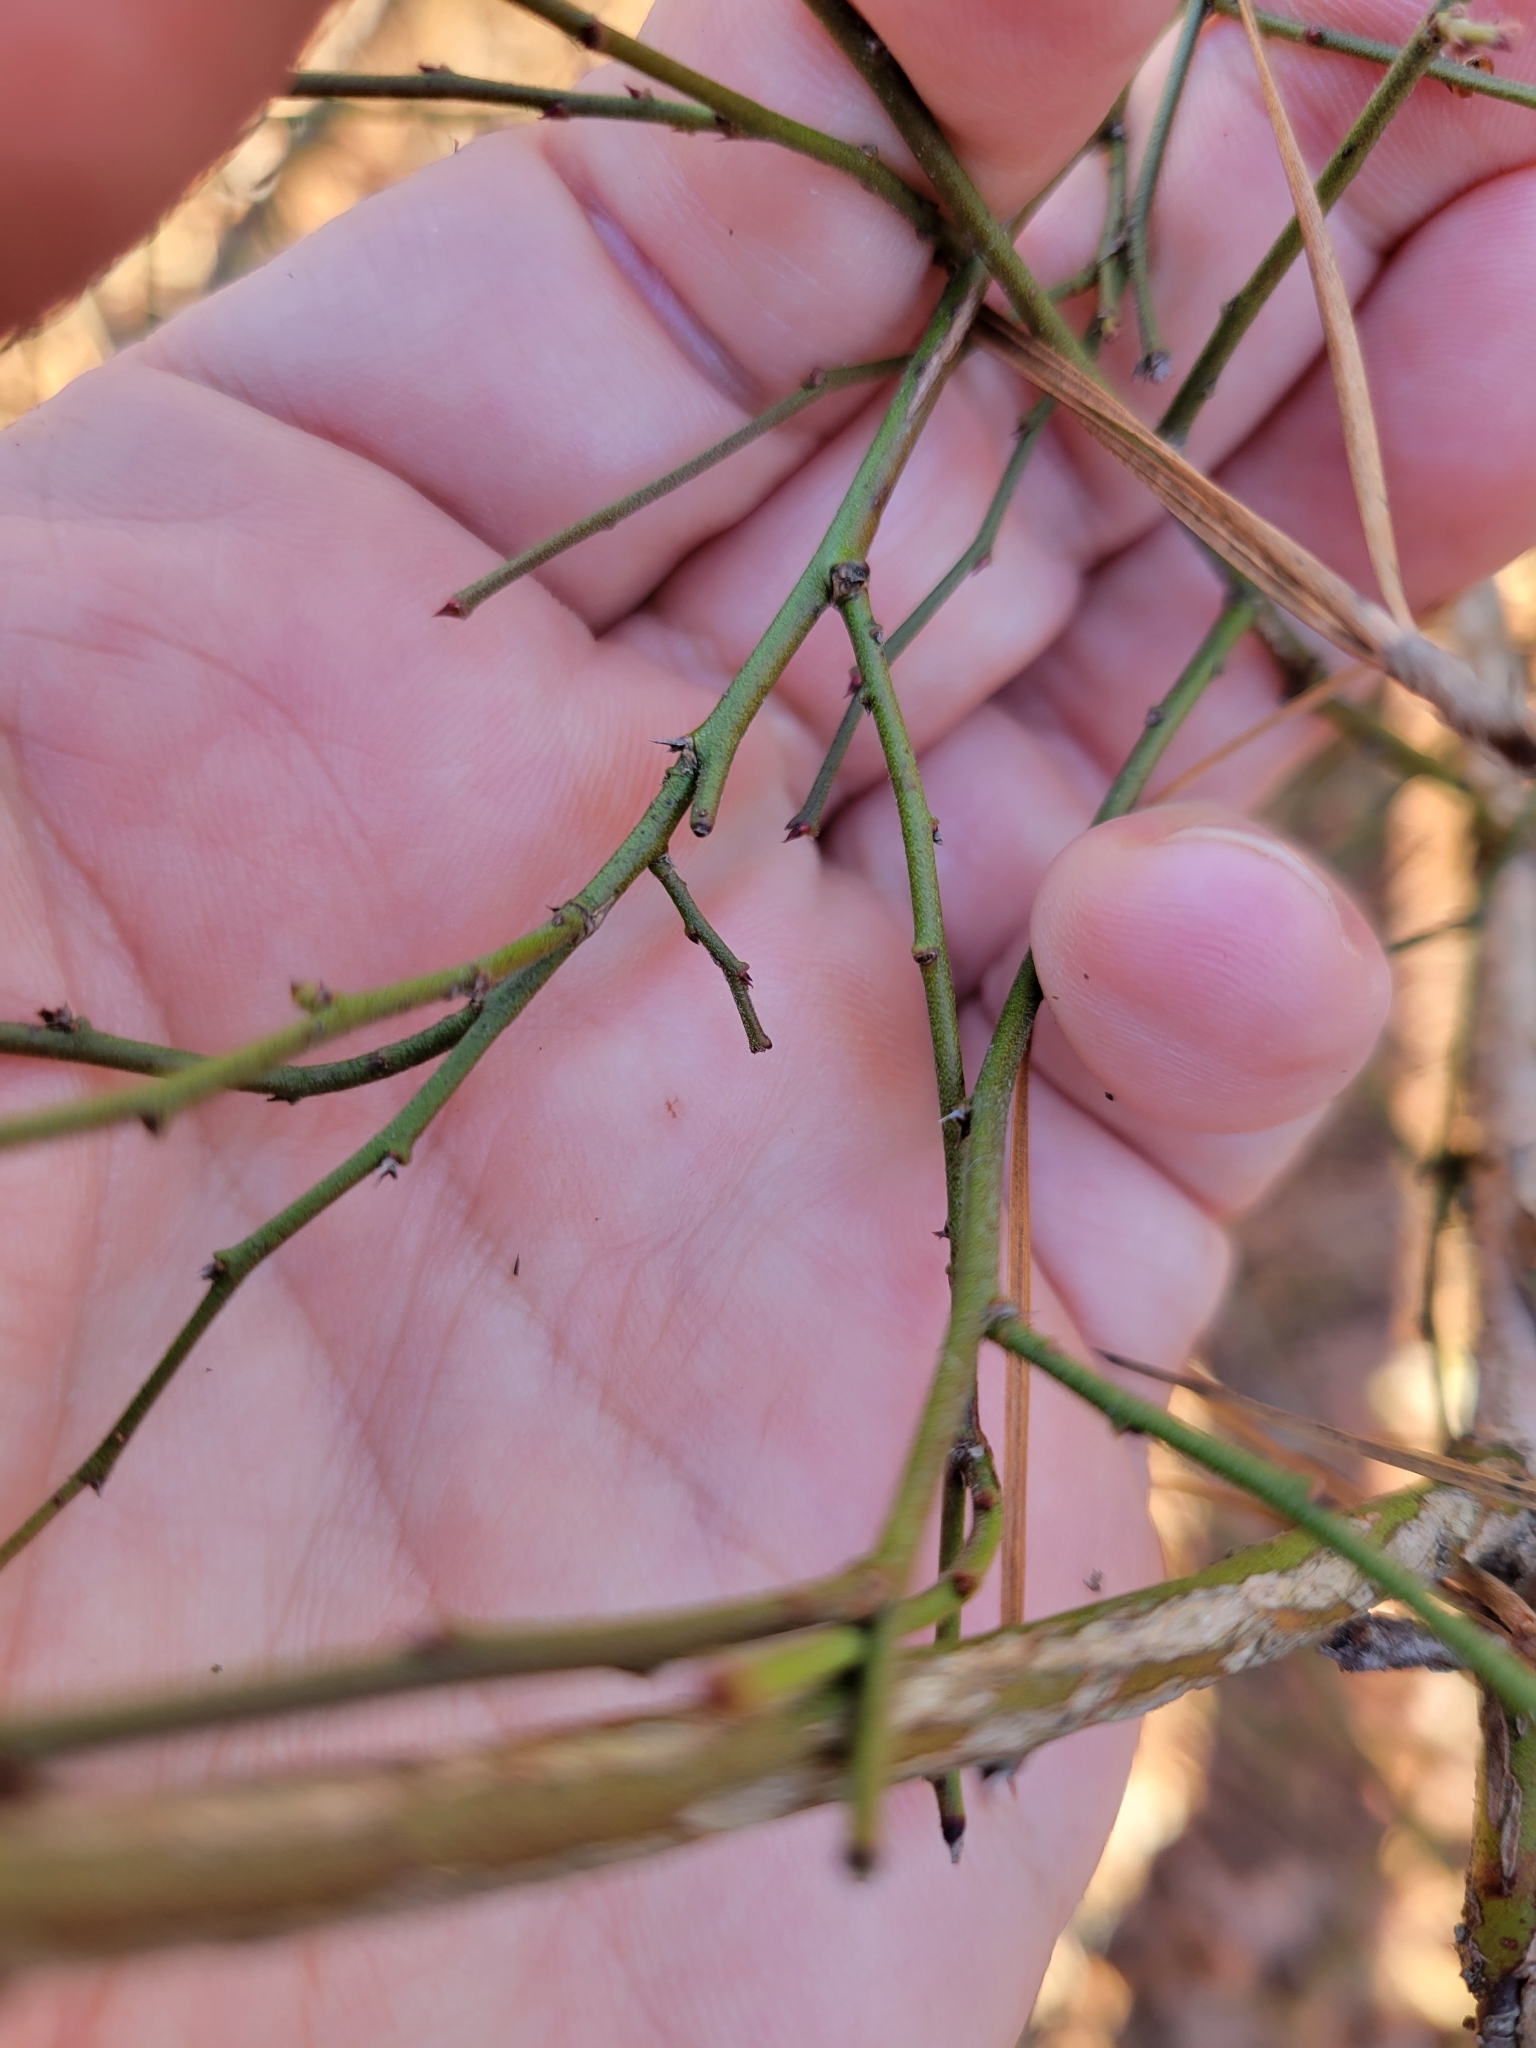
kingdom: Plantae
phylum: Tracheophyta
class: Magnoliopsida
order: Ericales
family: Ericaceae
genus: Vaccinium
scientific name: Vaccinium corymbosum
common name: Blueberry
